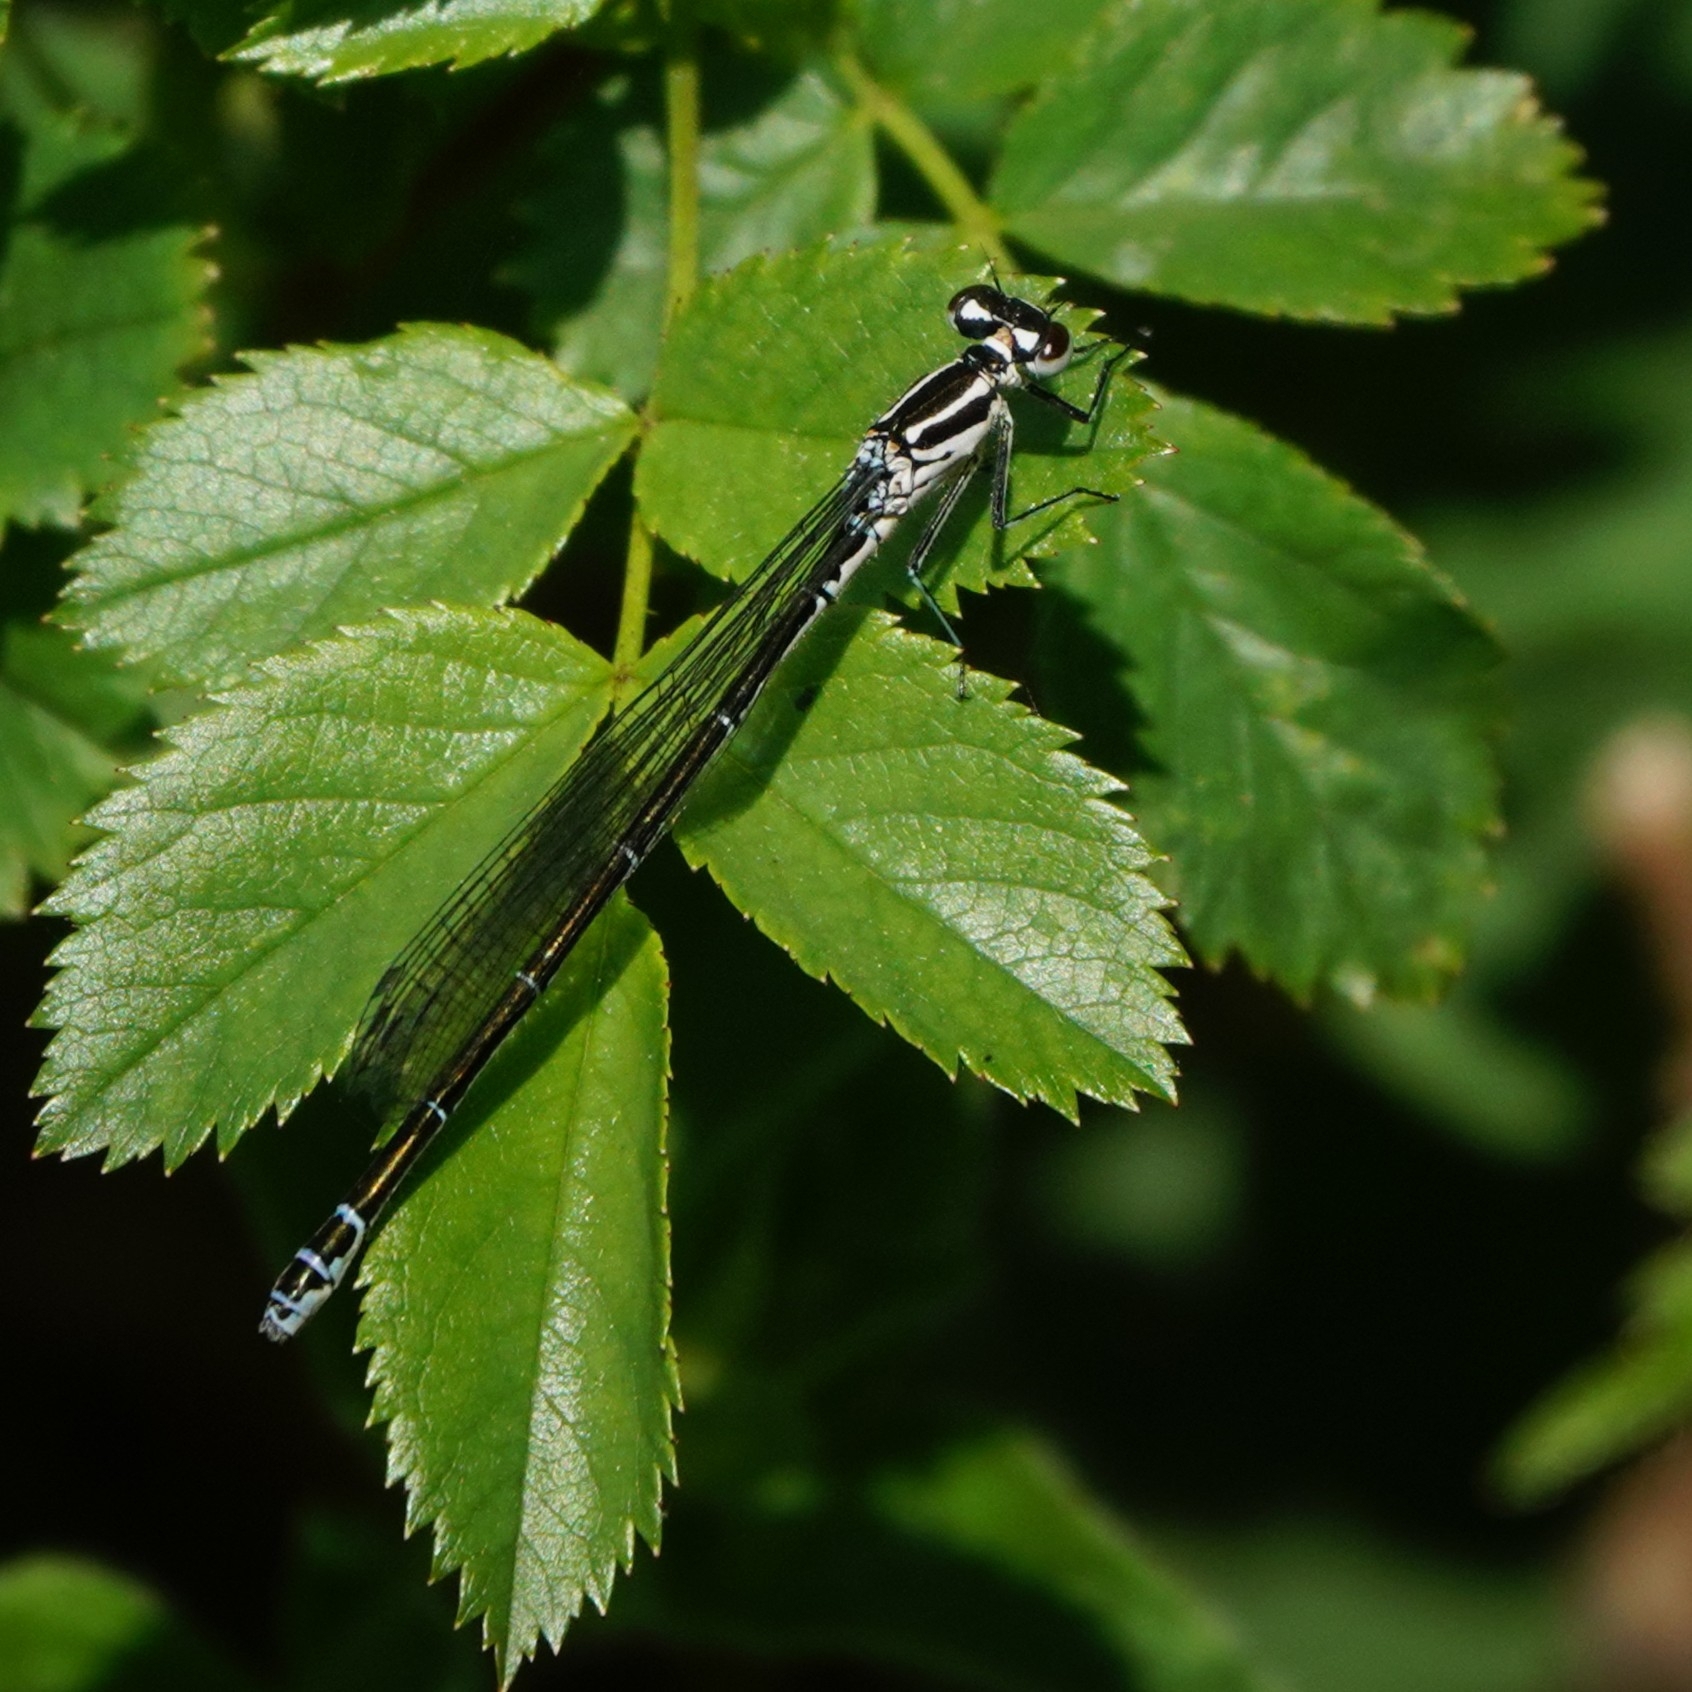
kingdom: Animalia
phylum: Arthropoda
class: Insecta
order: Odonata
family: Coenagrionidae
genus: Coenagrion
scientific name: Coenagrion puella
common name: Azure damselfly
